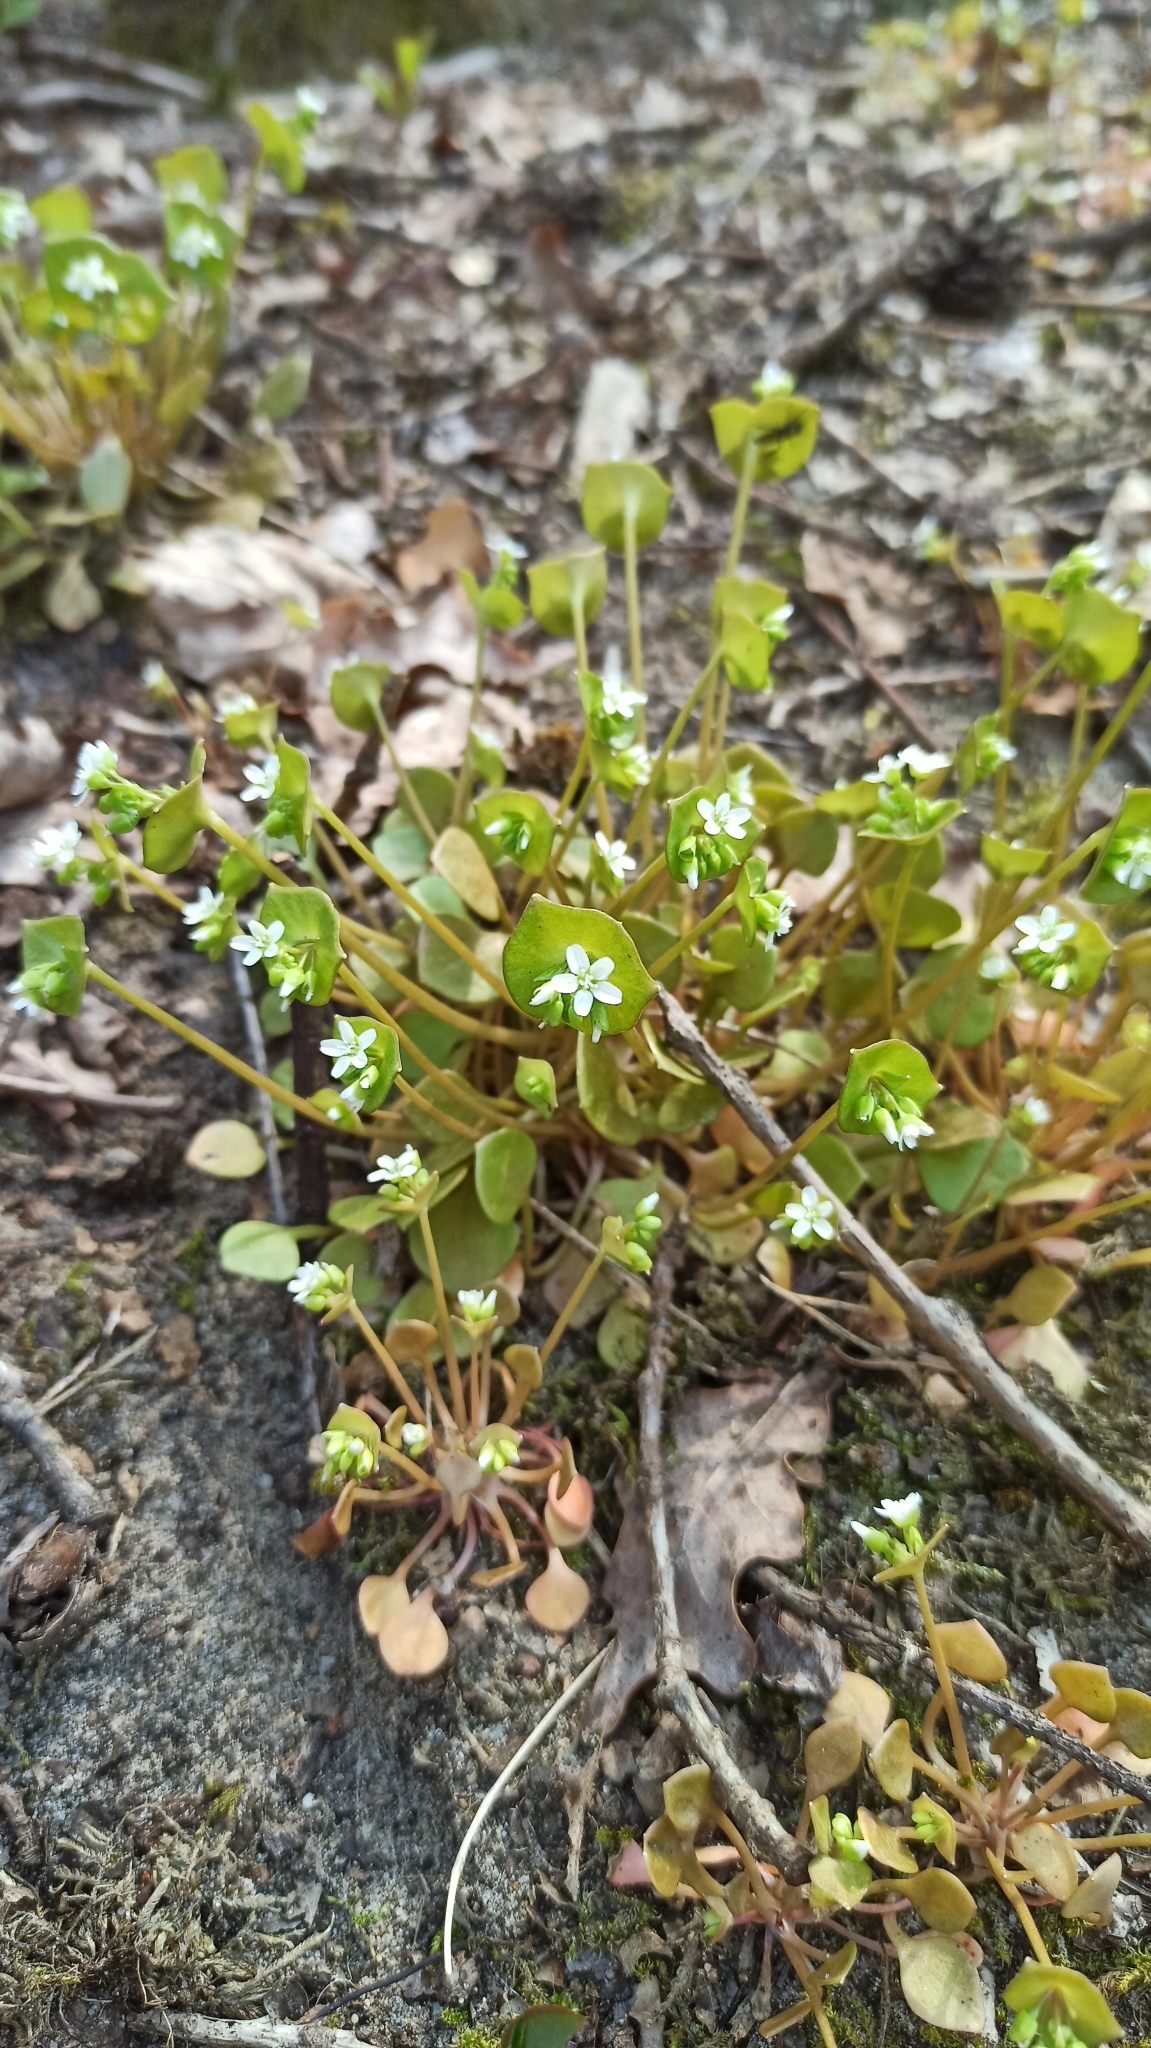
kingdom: Plantae
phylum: Tracheophyta
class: Magnoliopsida
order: Caryophyllales
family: Montiaceae
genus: Claytonia
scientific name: Claytonia perfoliata
